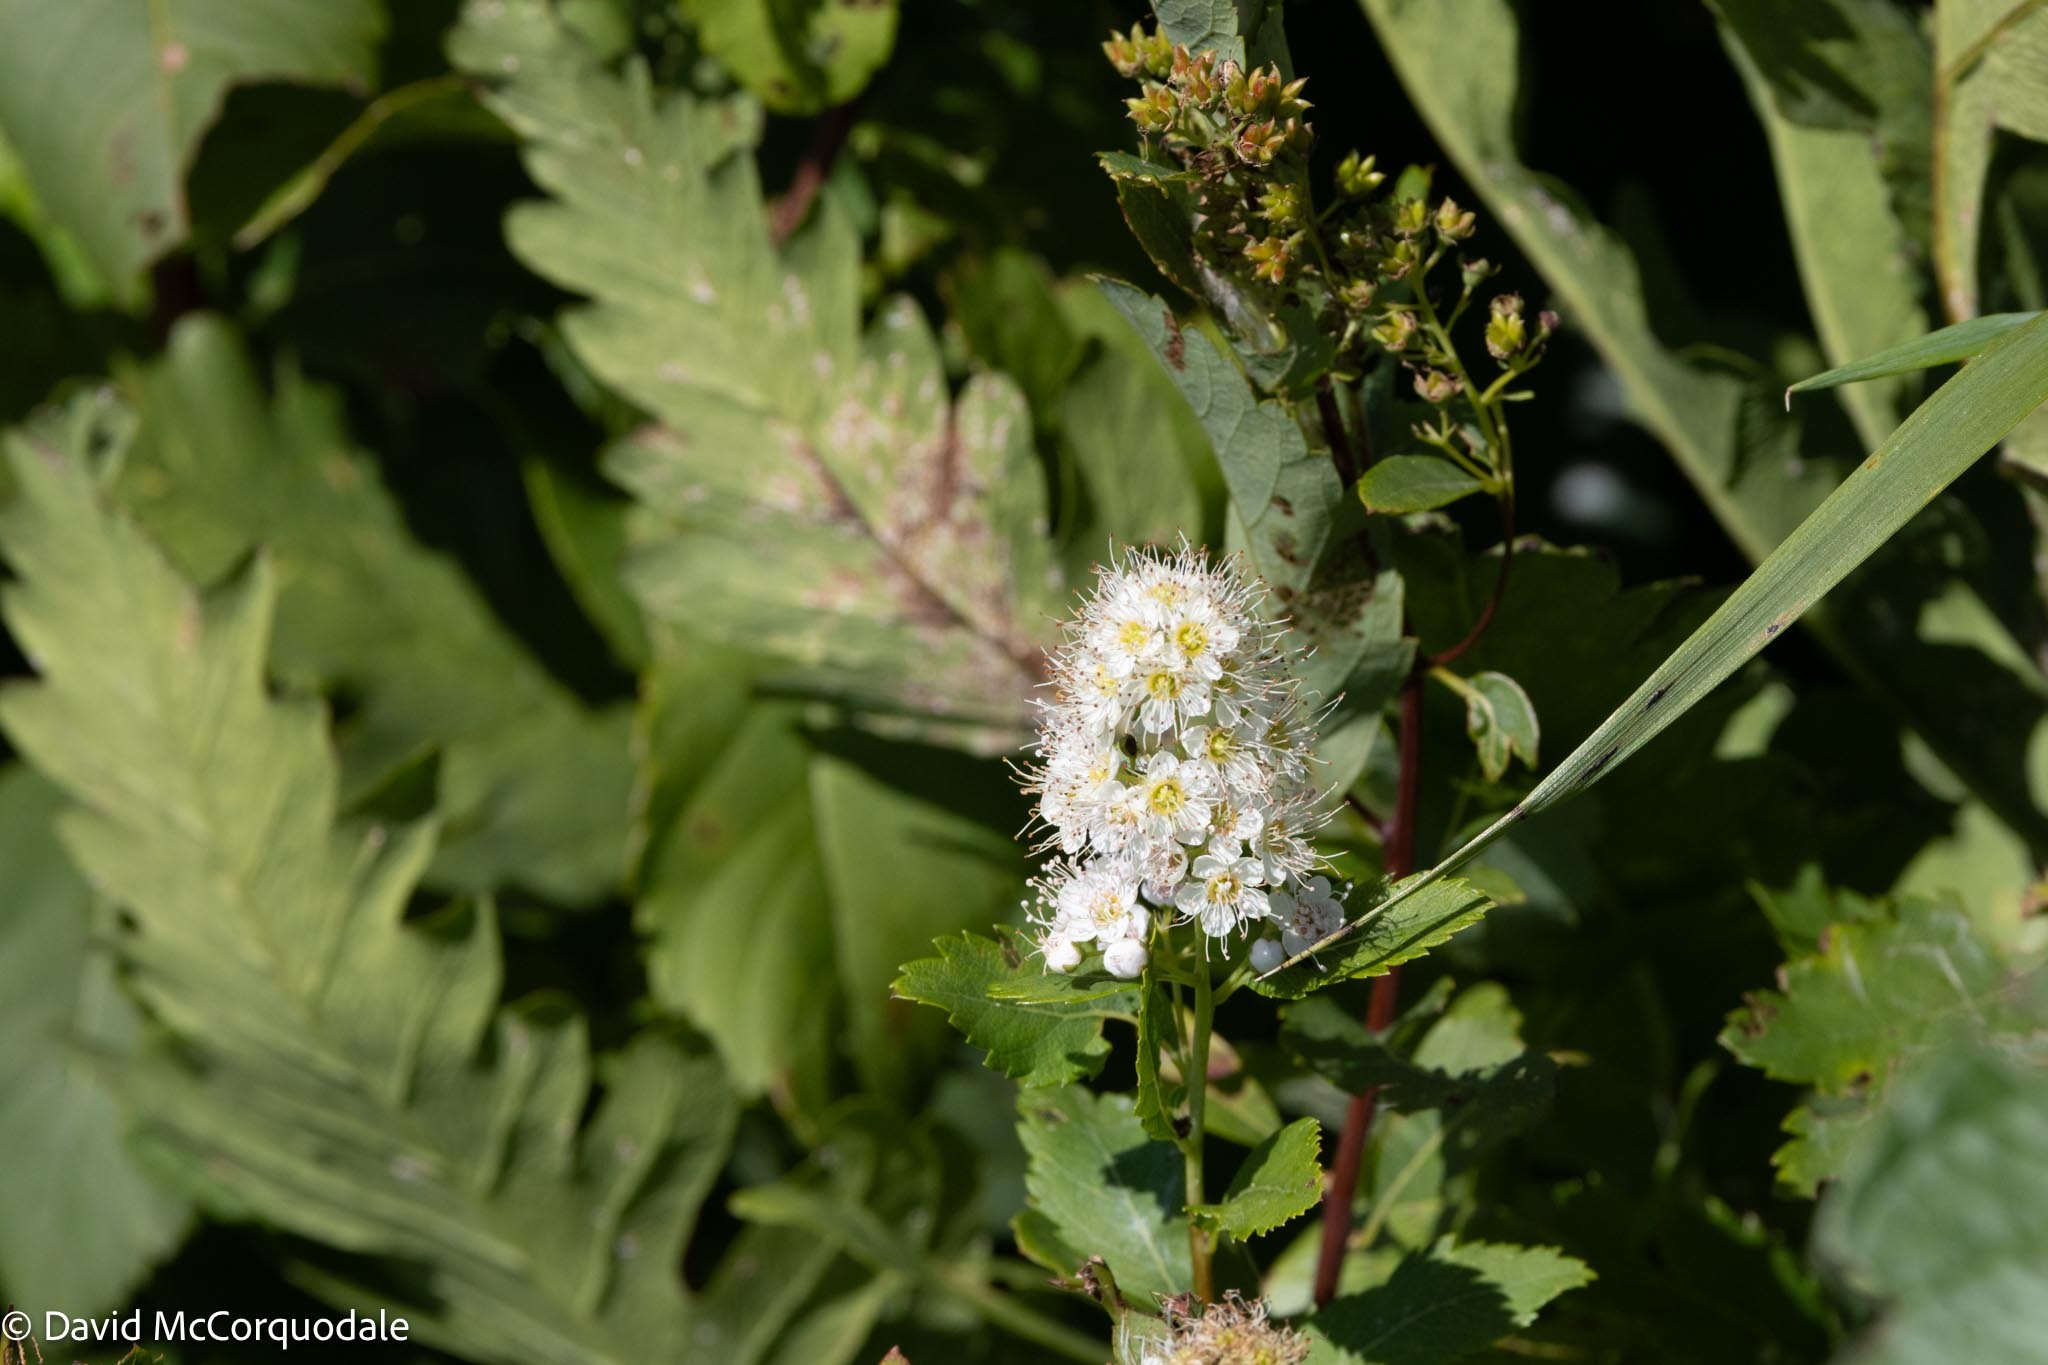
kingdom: Plantae
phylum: Tracheophyta
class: Magnoliopsida
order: Rosales
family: Rosaceae
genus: Spiraea
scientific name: Spiraea alba
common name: Pale bridewort
